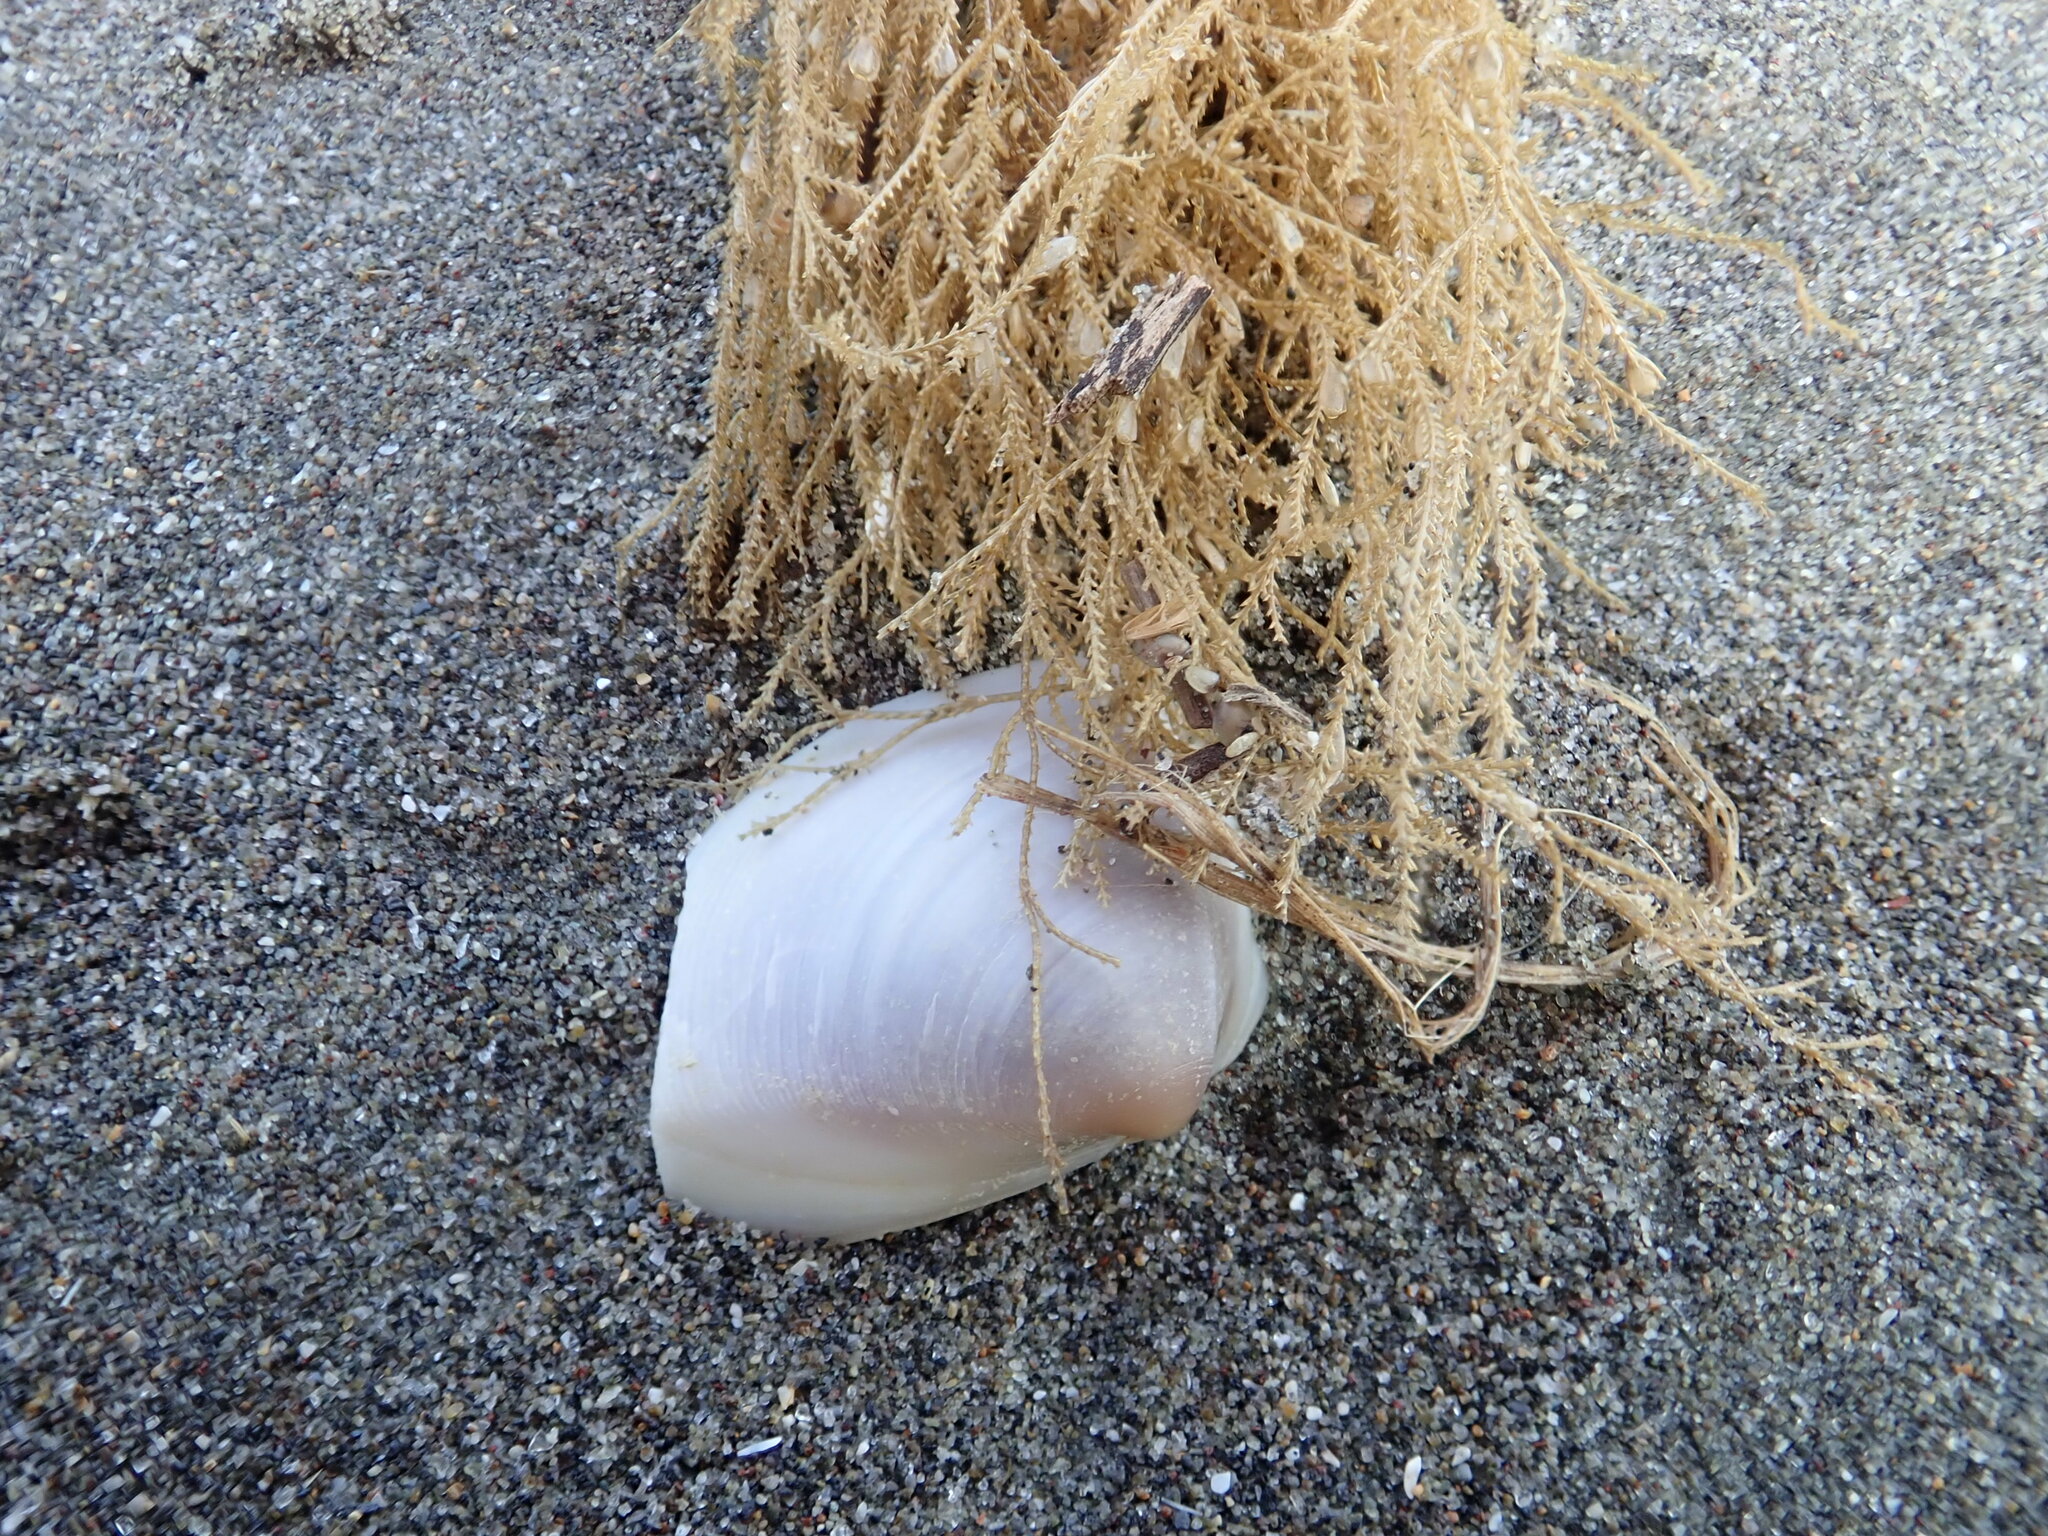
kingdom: Animalia
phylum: Cnidaria
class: Hydrozoa
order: Leptothecata
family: Sertulariidae
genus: Amphisbetia
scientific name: Amphisbetia bispinosa
